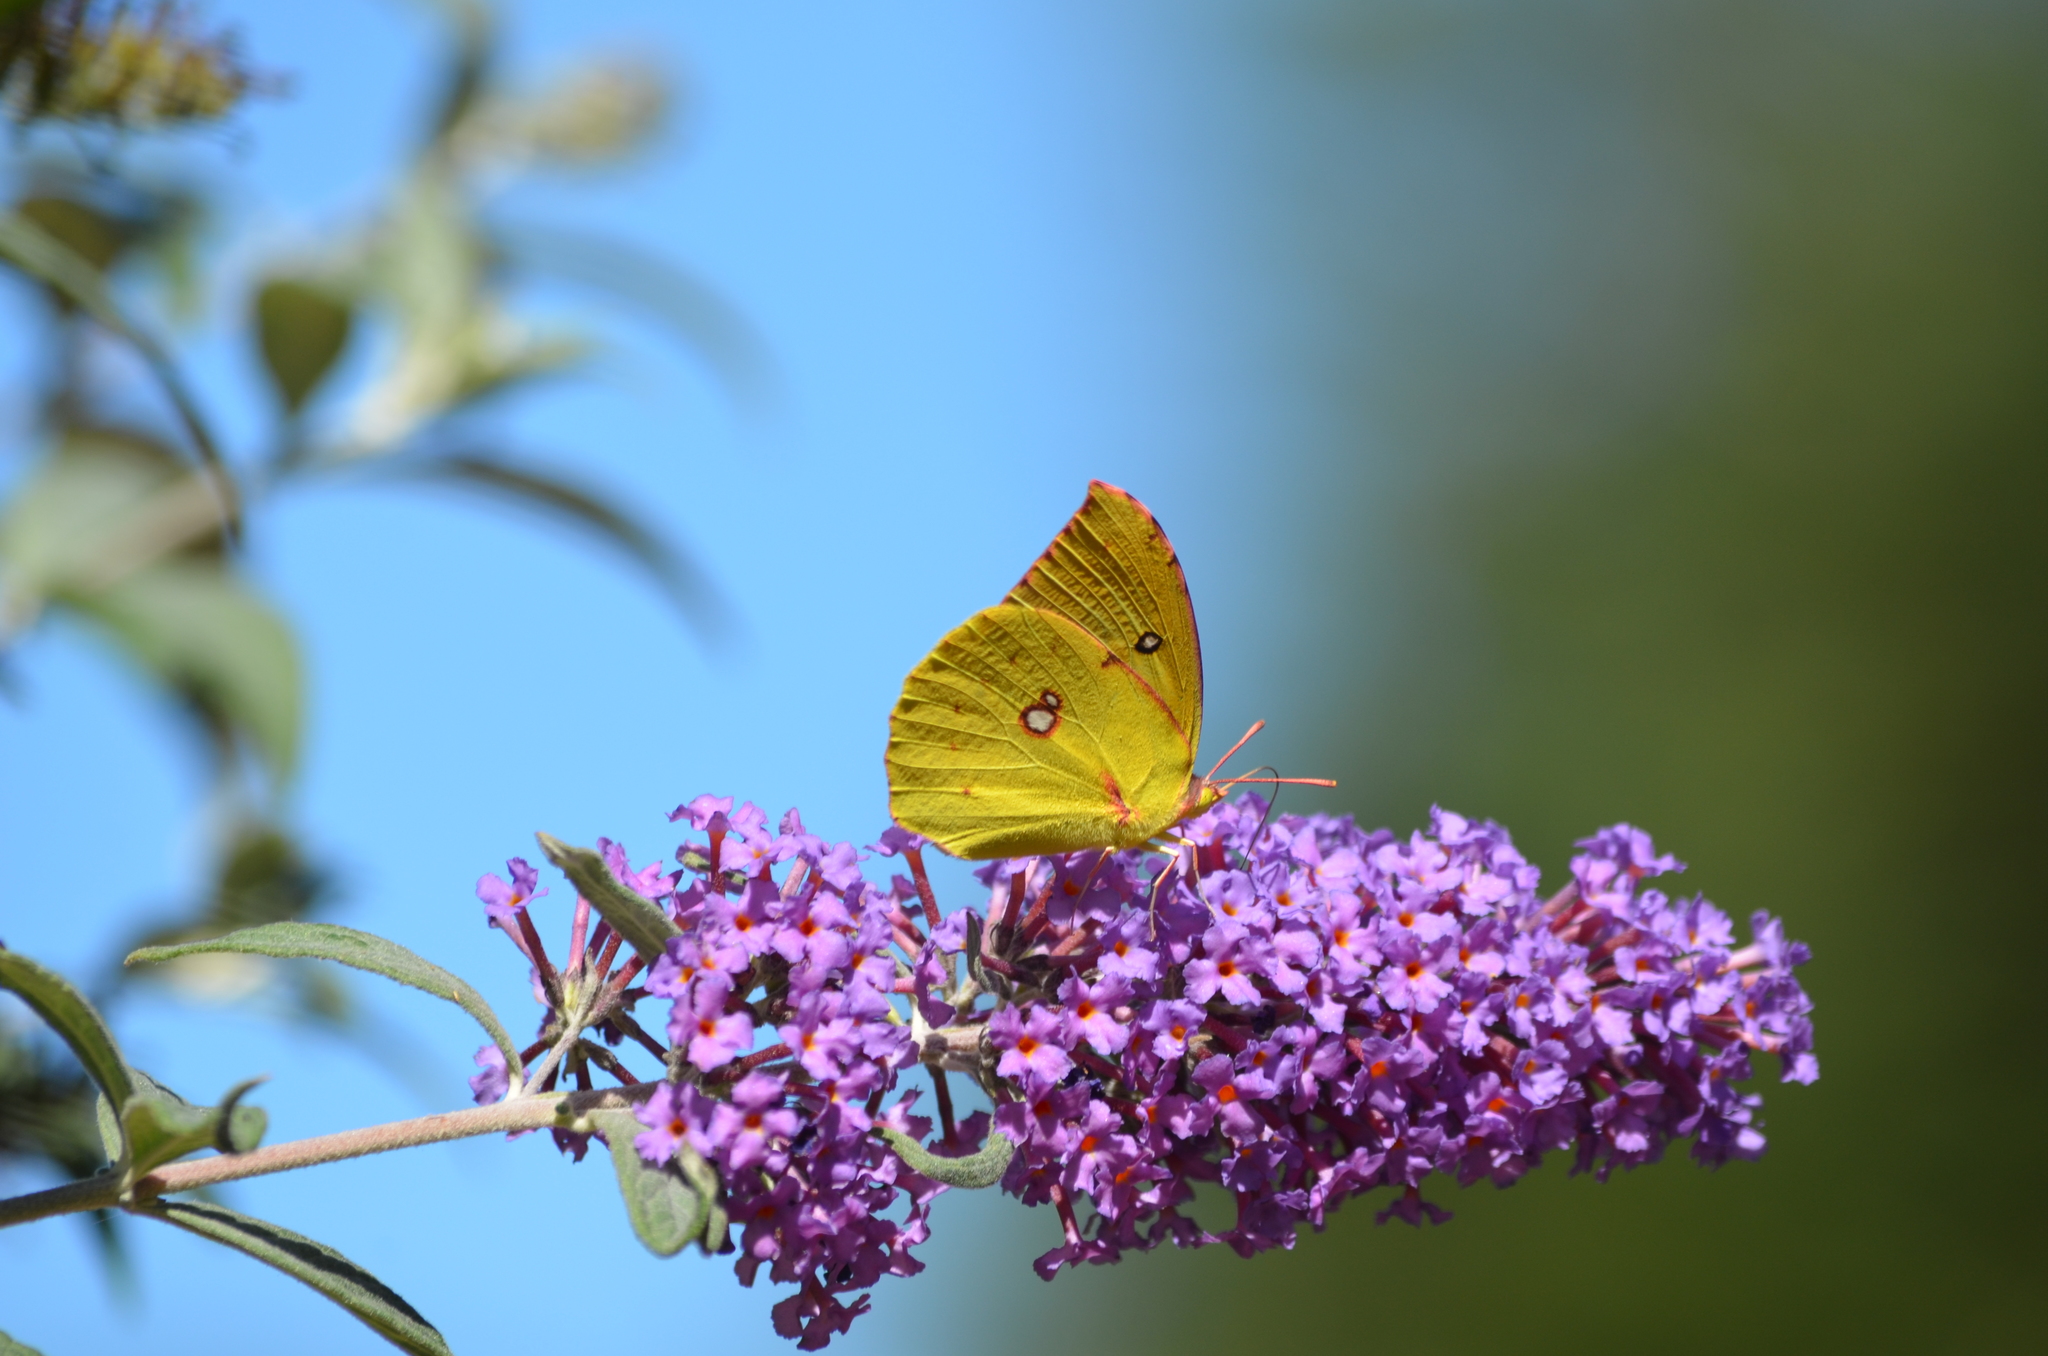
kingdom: Animalia
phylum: Arthropoda
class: Insecta
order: Lepidoptera
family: Pieridae
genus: Zerene
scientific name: Zerene eurydice
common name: California dogface
